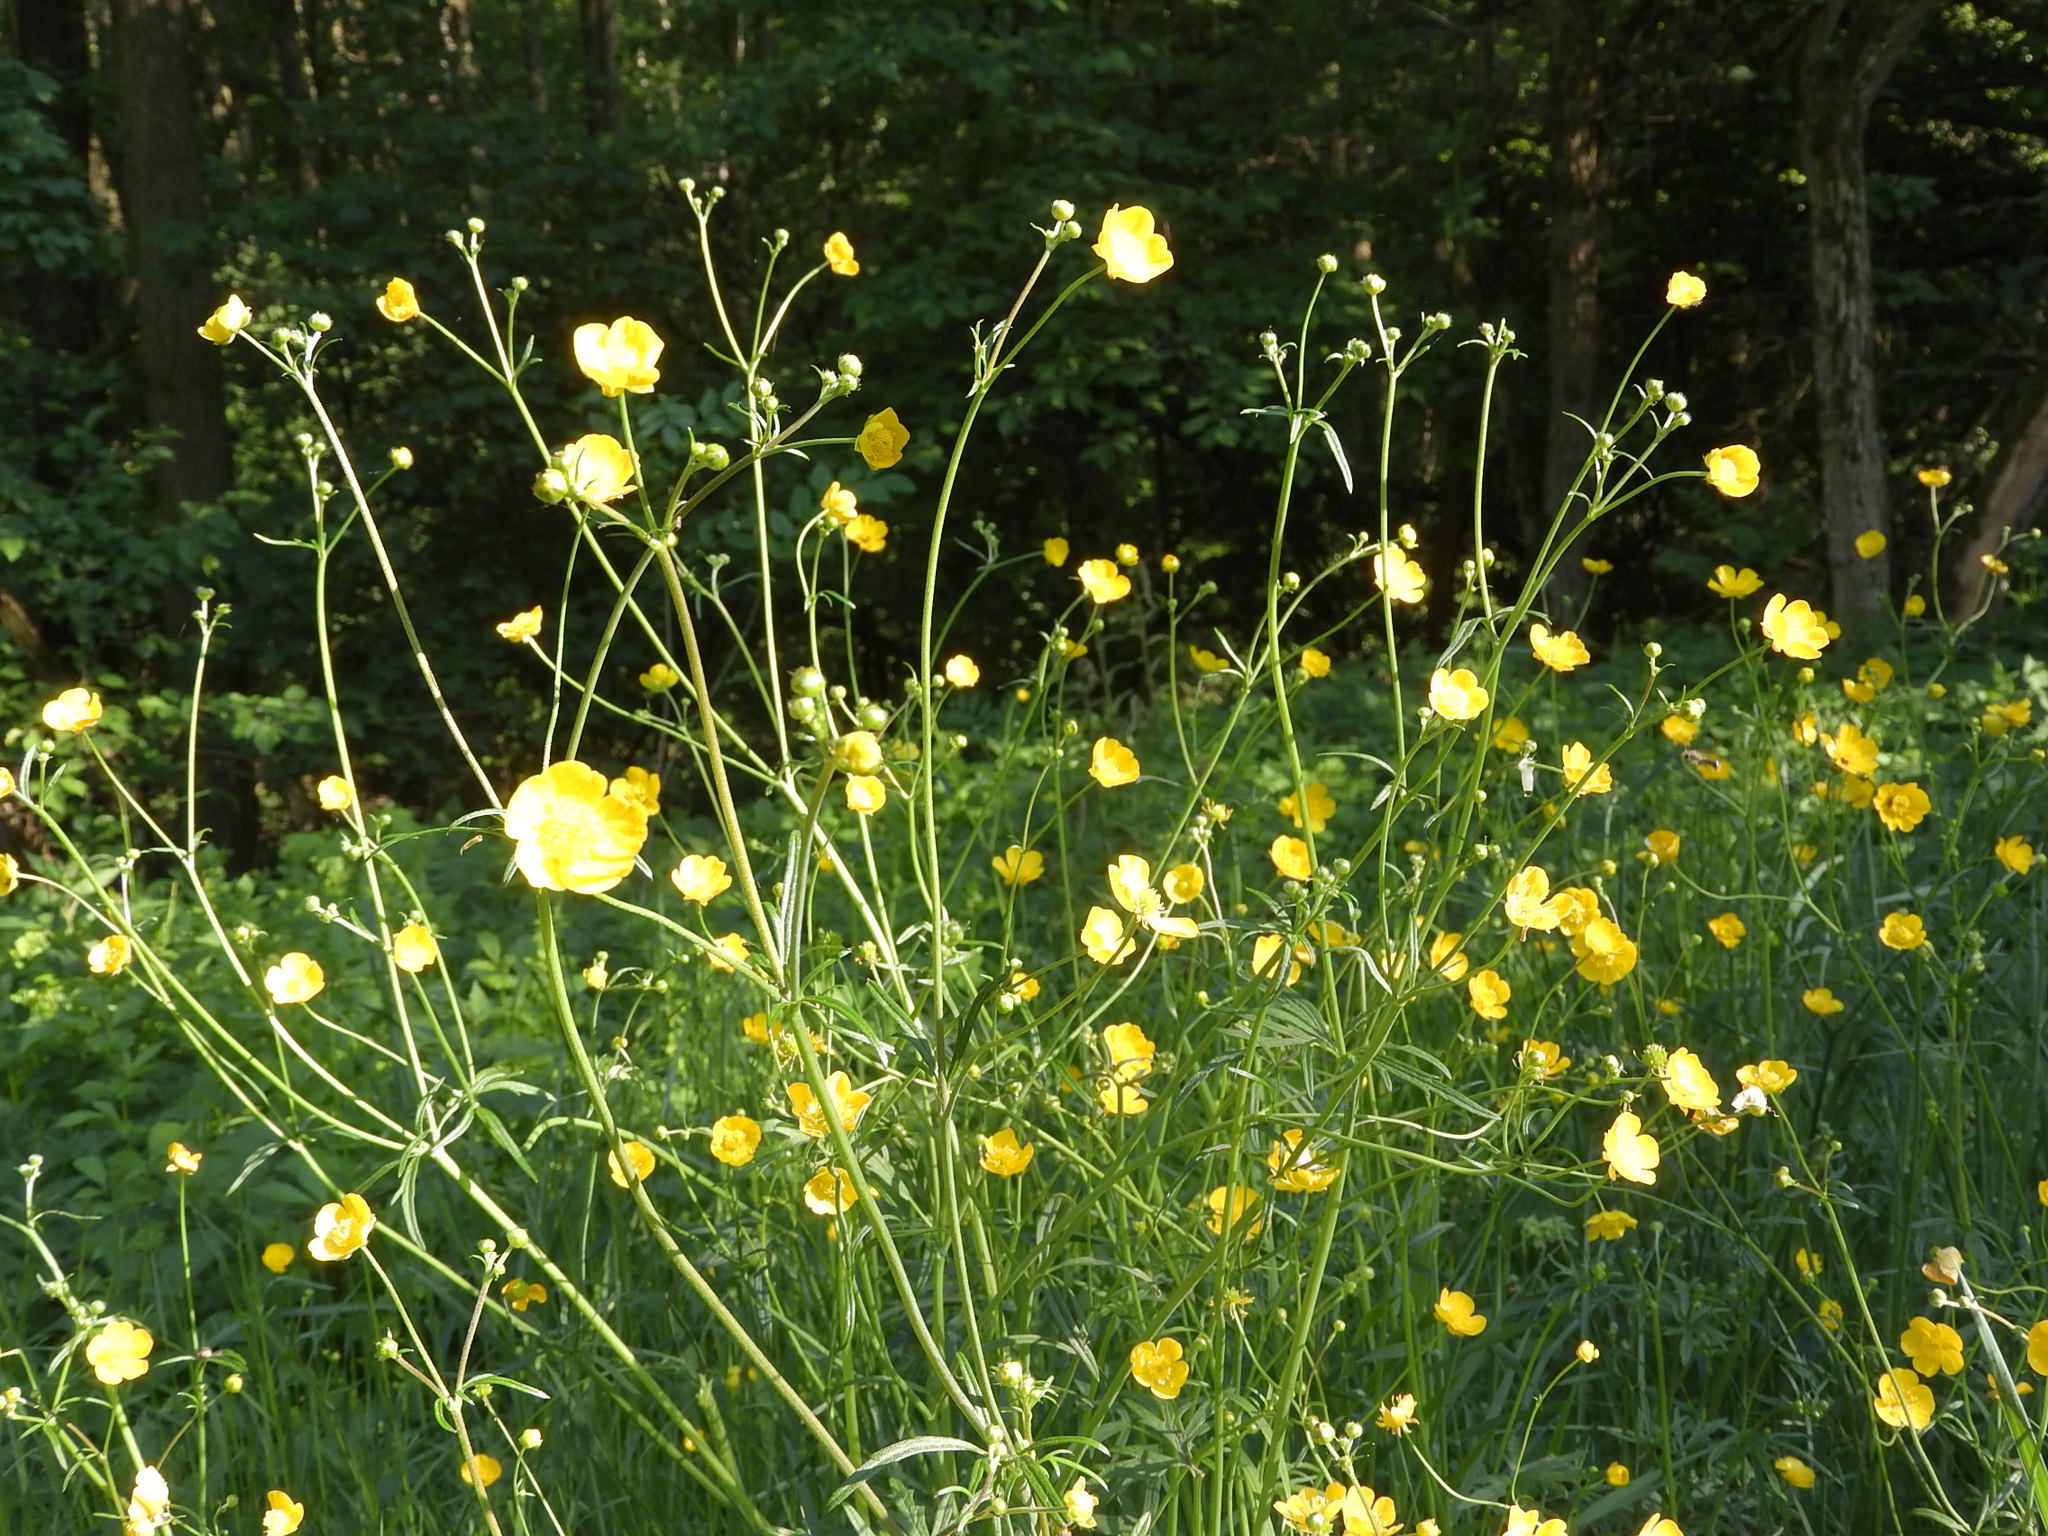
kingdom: Plantae
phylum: Tracheophyta
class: Magnoliopsida
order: Ranunculales
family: Ranunculaceae
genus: Ranunculus
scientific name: Ranunculus acris
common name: Meadow buttercup
